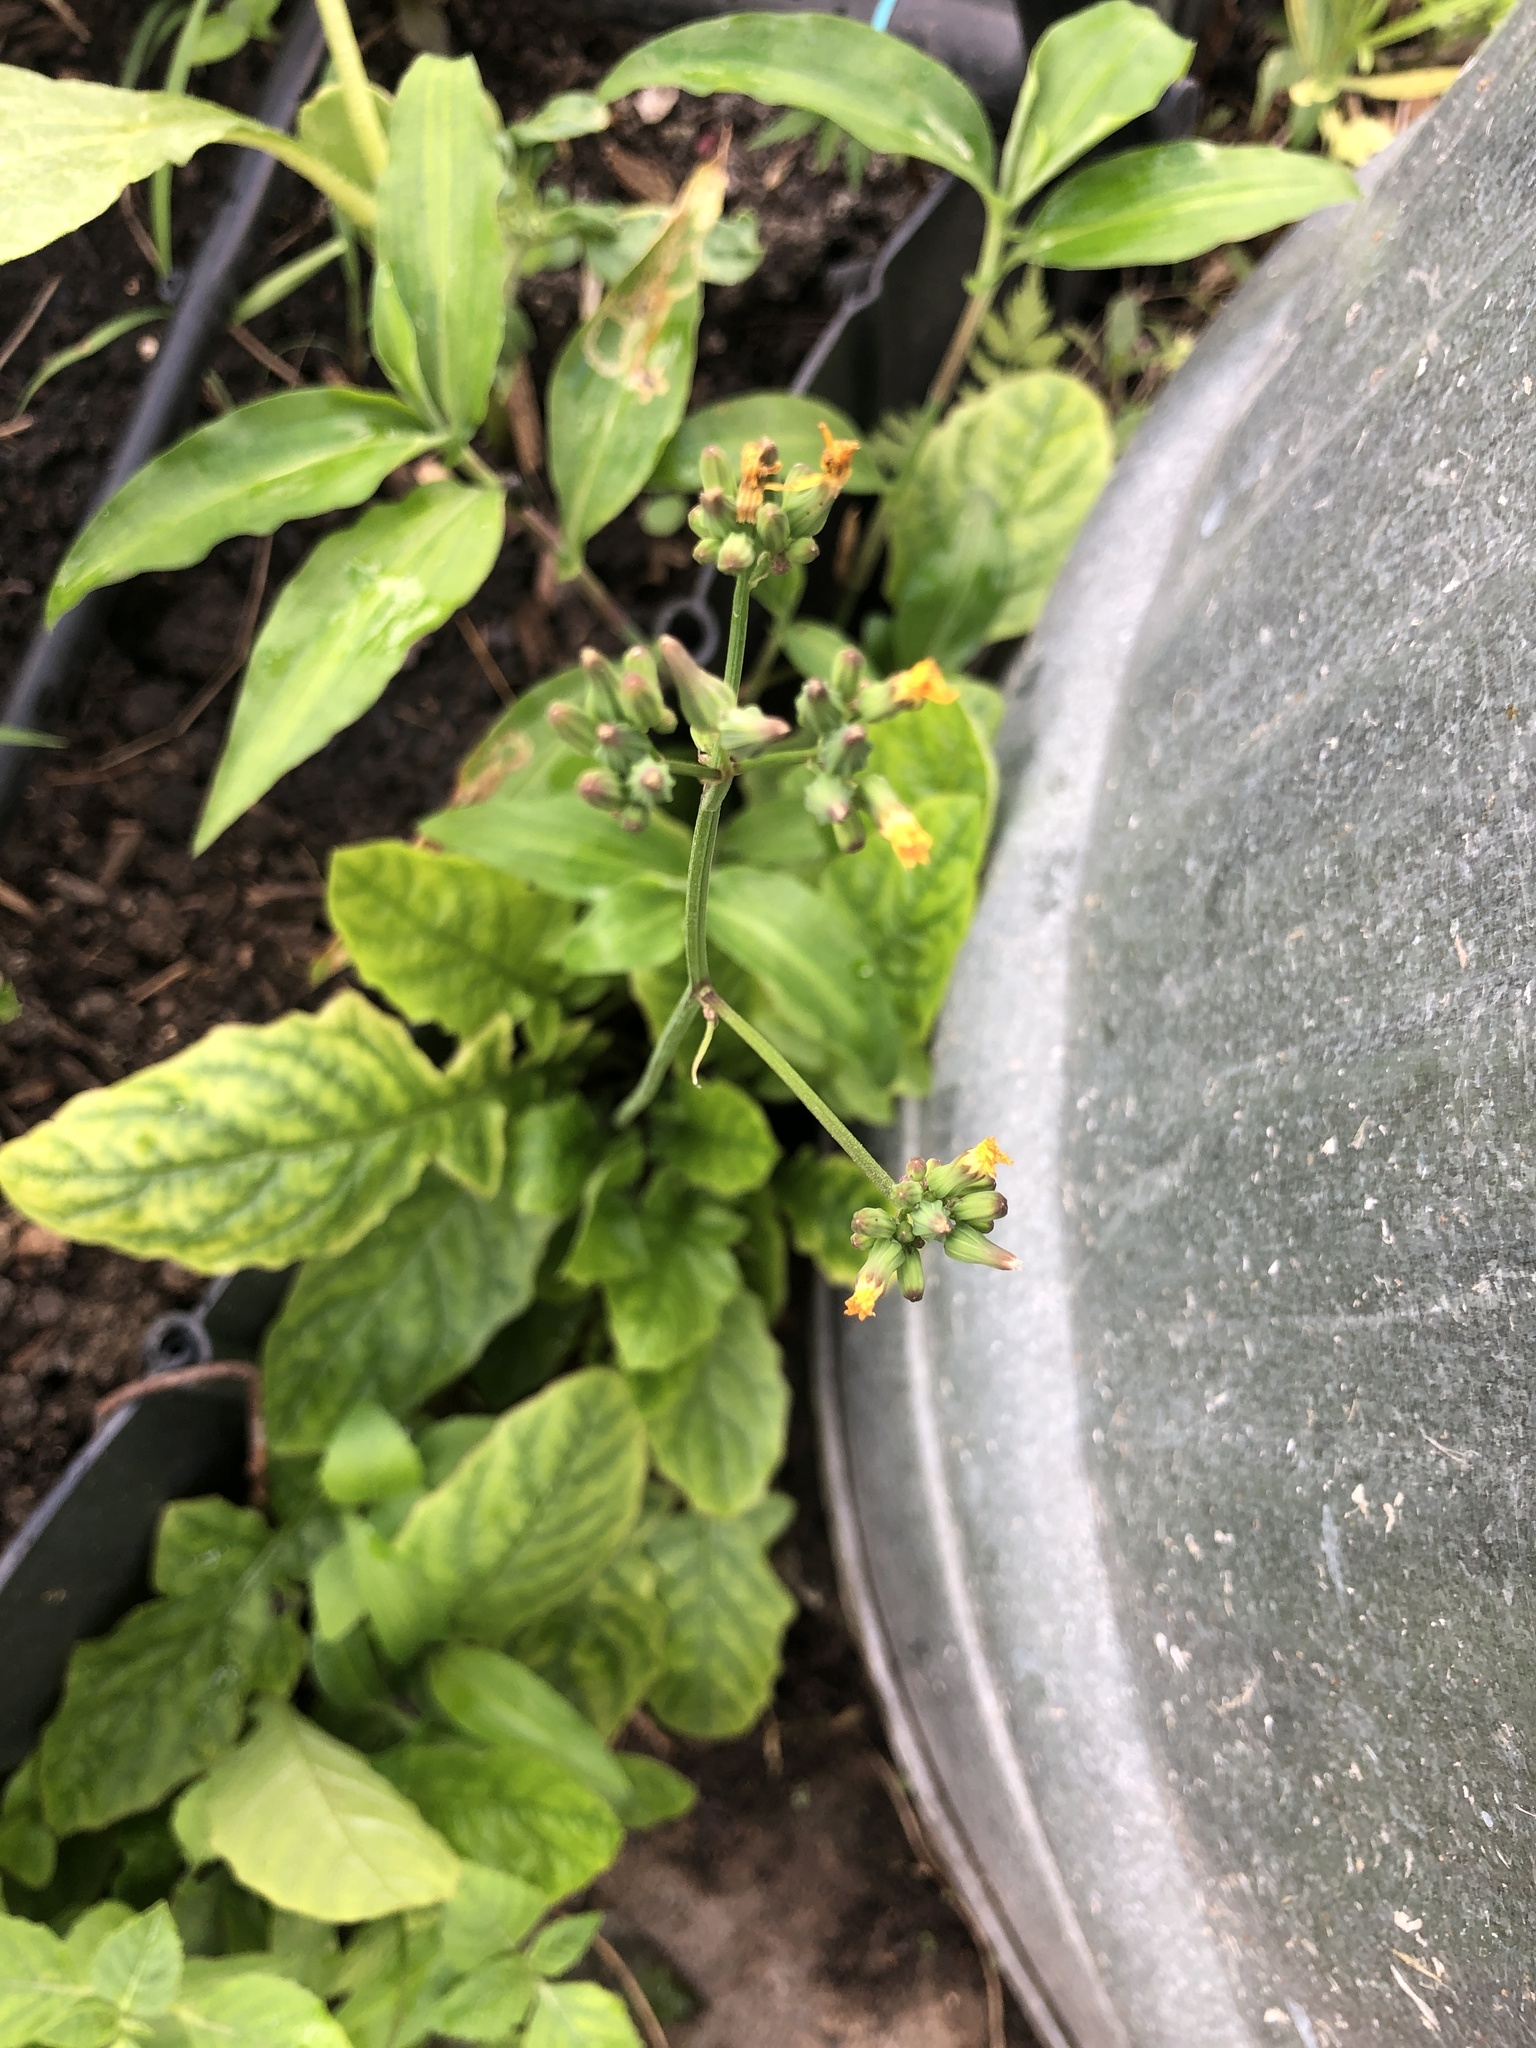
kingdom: Plantae
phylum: Tracheophyta
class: Magnoliopsida
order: Asterales
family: Asteraceae
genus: Youngia
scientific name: Youngia japonica
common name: Oriental false hawksbeard
